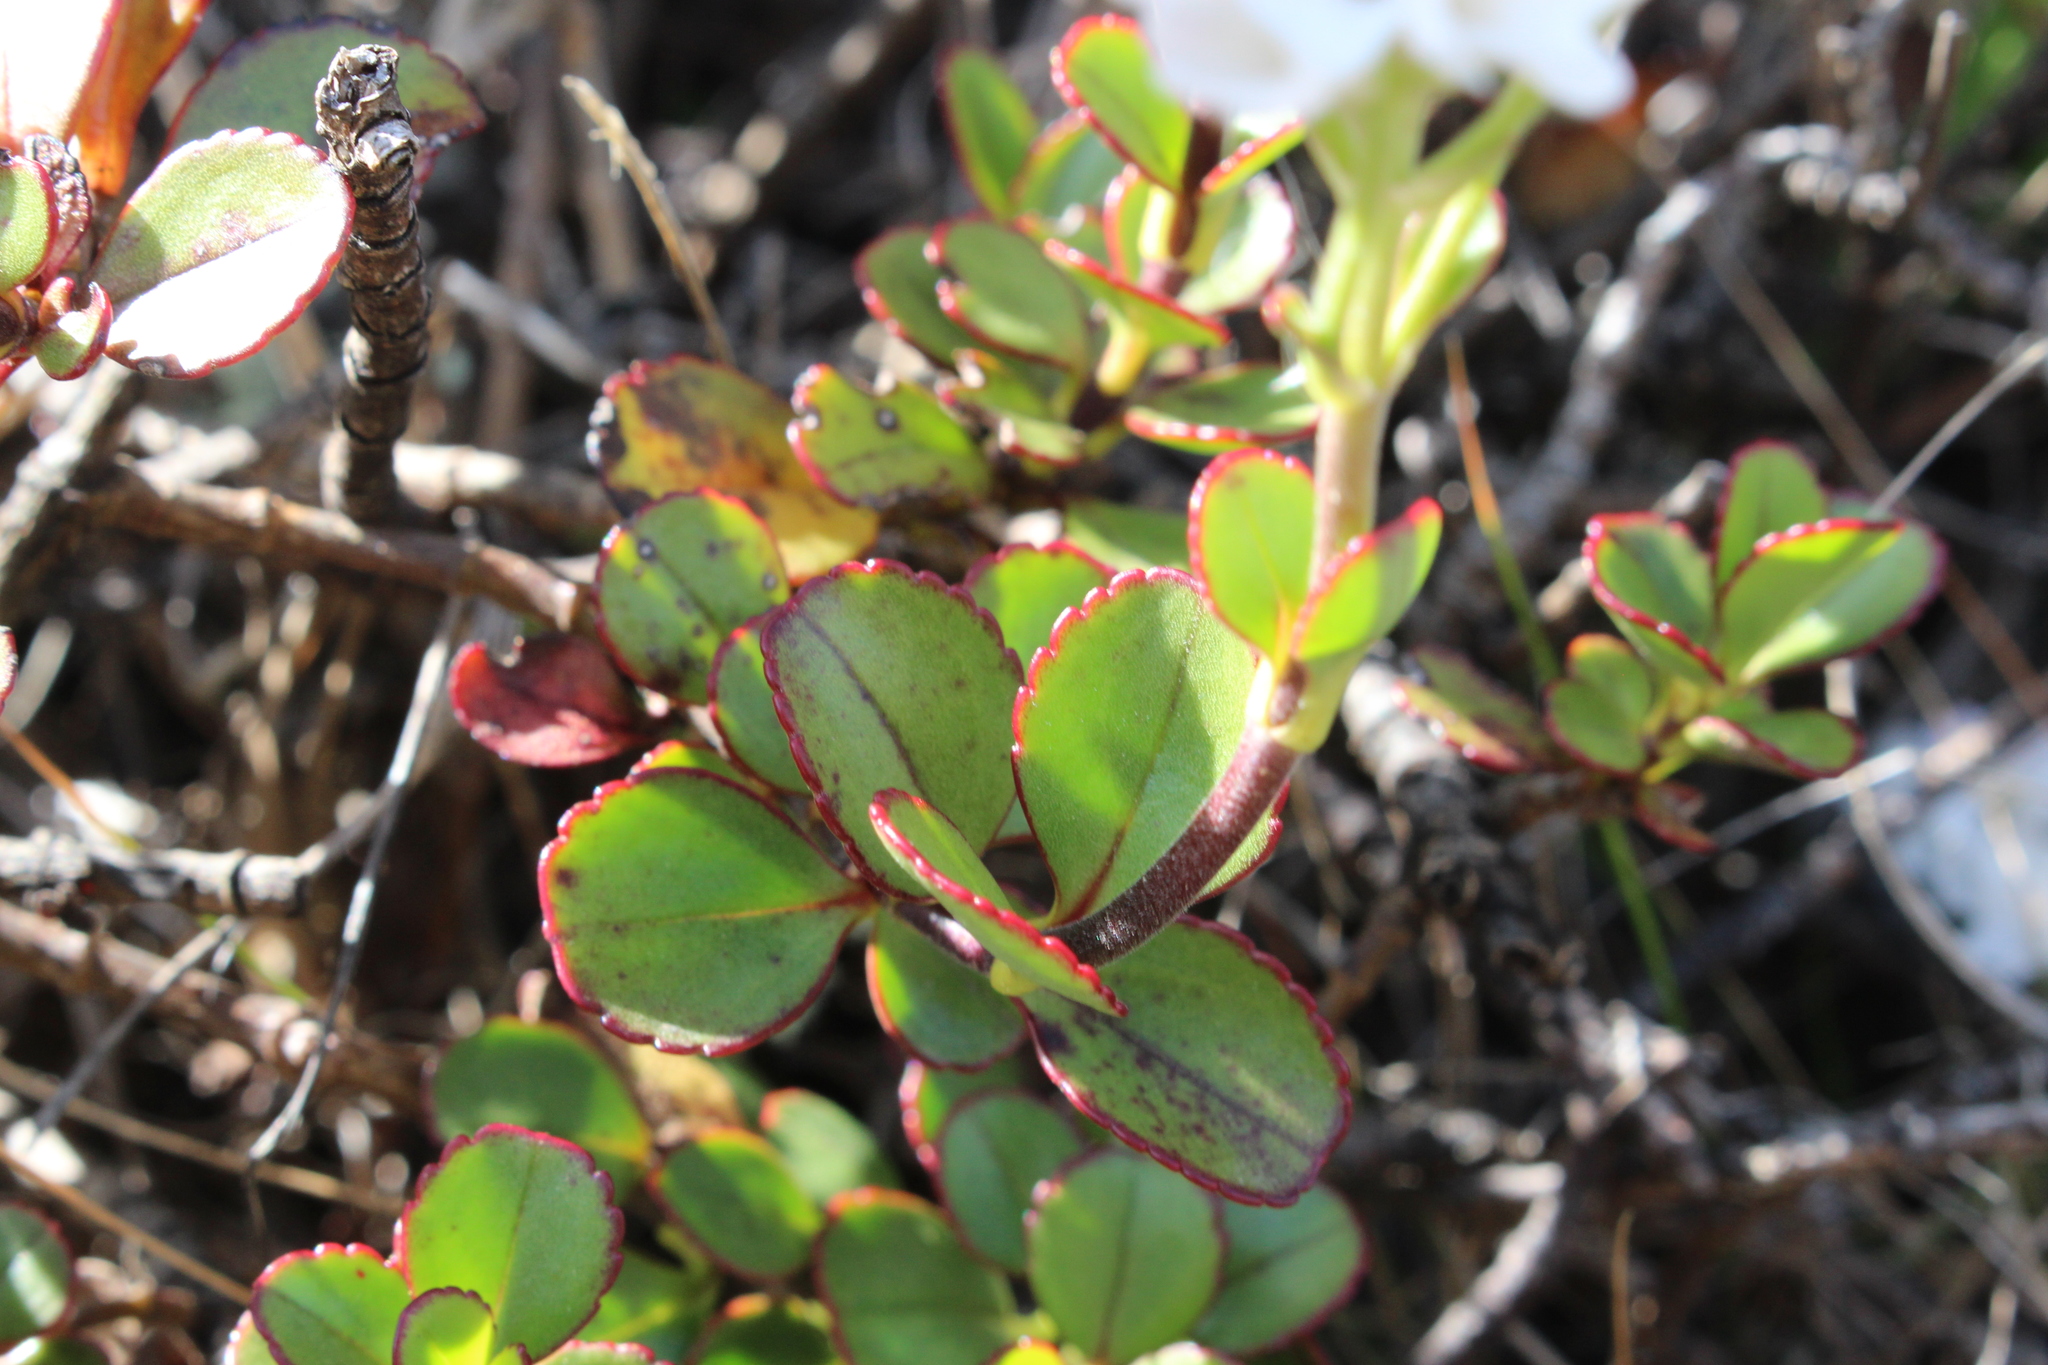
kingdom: Plantae
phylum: Tracheophyta
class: Magnoliopsida
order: Lamiales
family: Plantaginaceae
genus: Veronica
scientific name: Veronica lavaudiana
